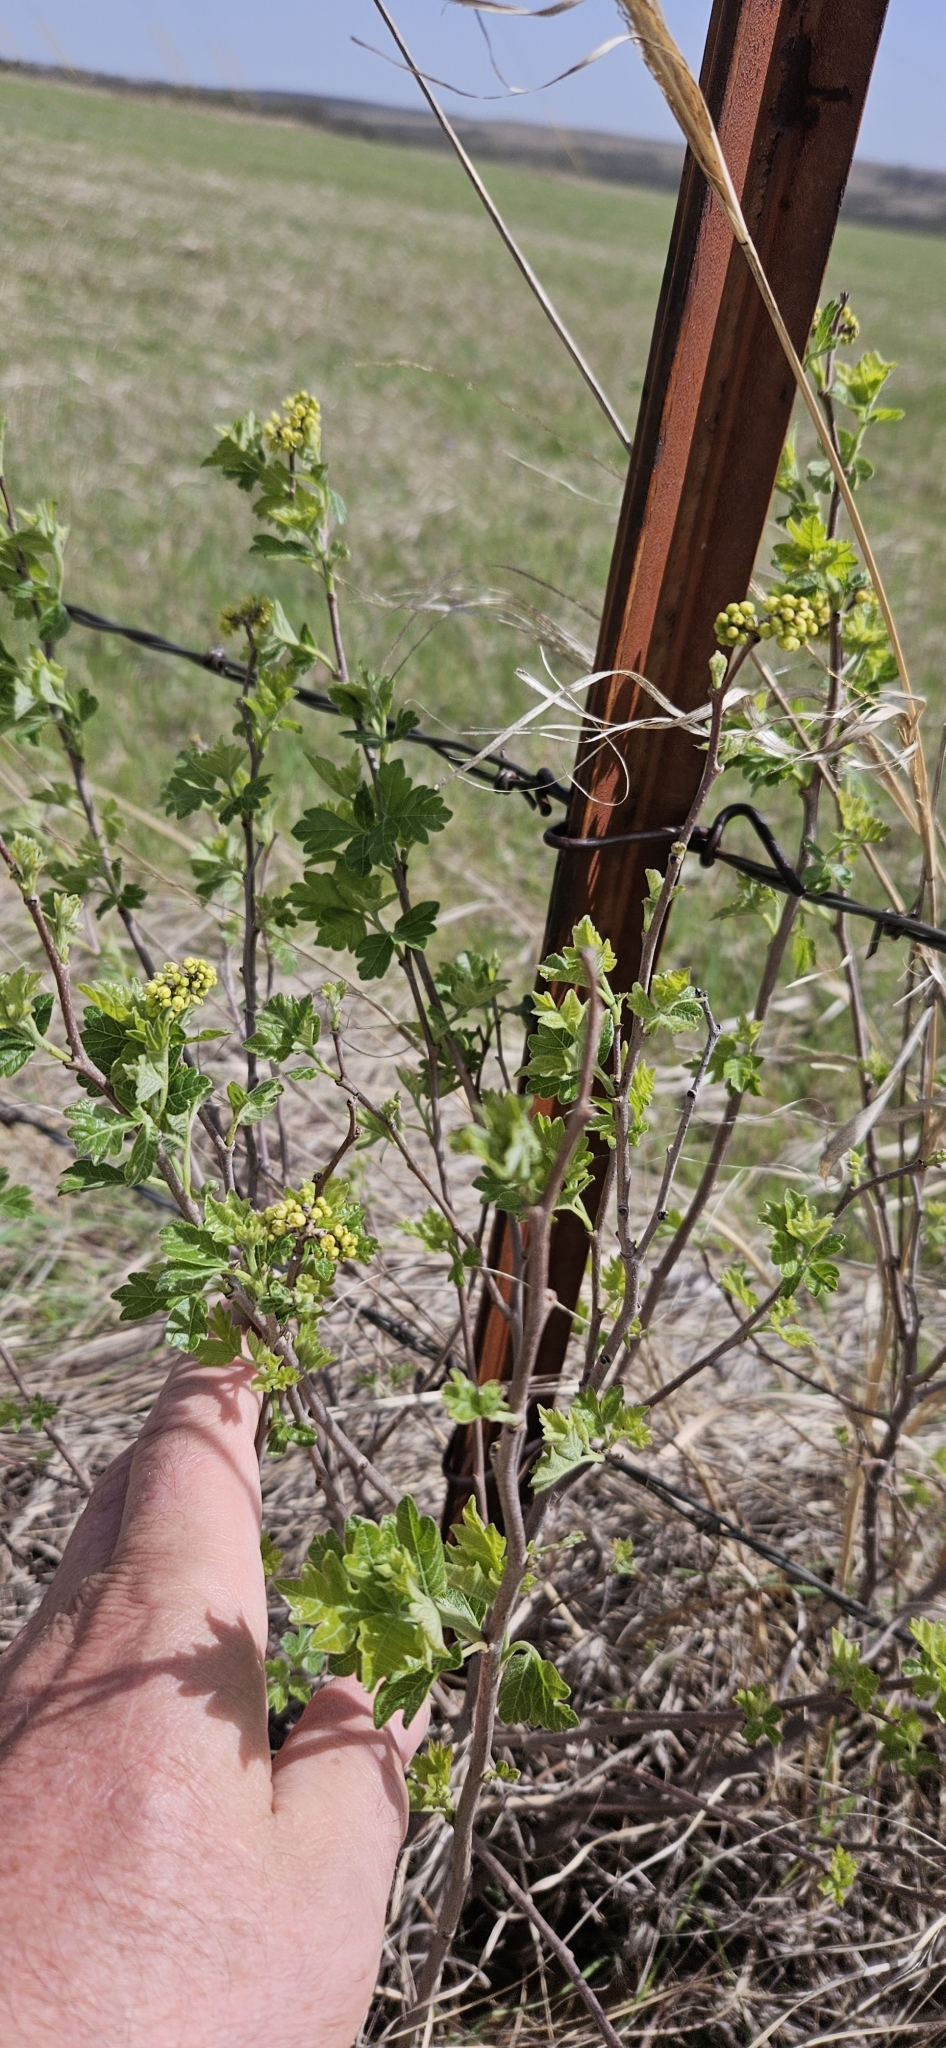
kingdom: Plantae
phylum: Tracheophyta
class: Magnoliopsida
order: Sapindales
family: Anacardiaceae
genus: Rhus
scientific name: Rhus aromatica
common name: Aromatic sumac
